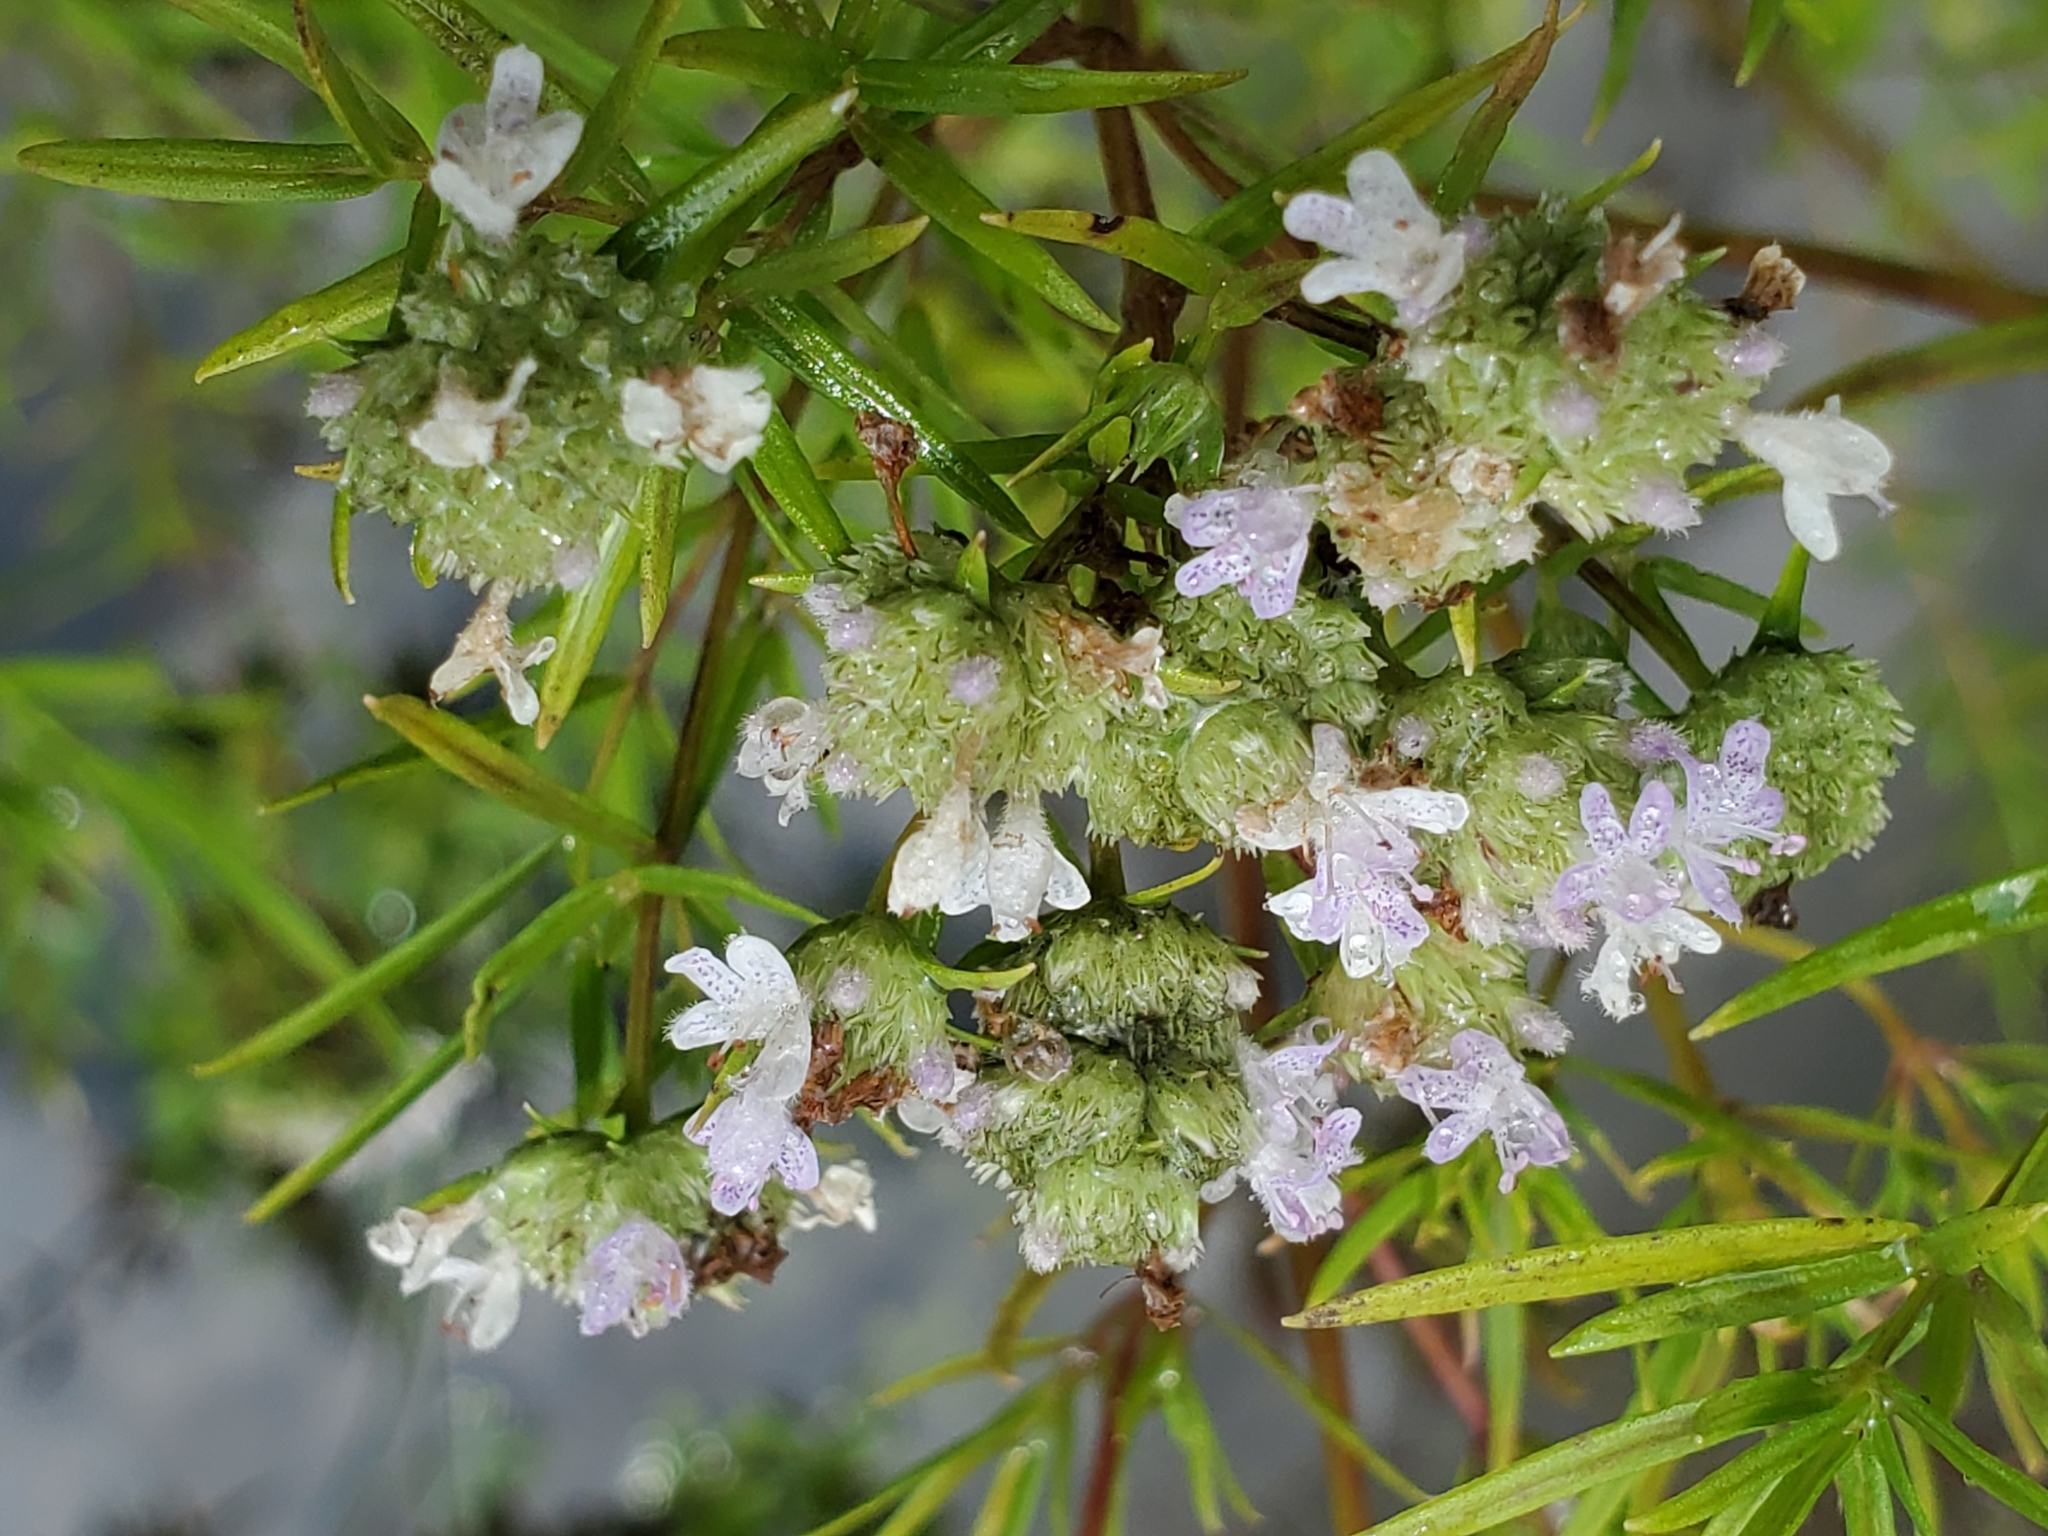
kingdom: Plantae
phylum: Tracheophyta
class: Magnoliopsida
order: Lamiales
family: Lamiaceae
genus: Pycnanthemum
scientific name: Pycnanthemum tenuifolium
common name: Narrow-leaf mountain-mint
